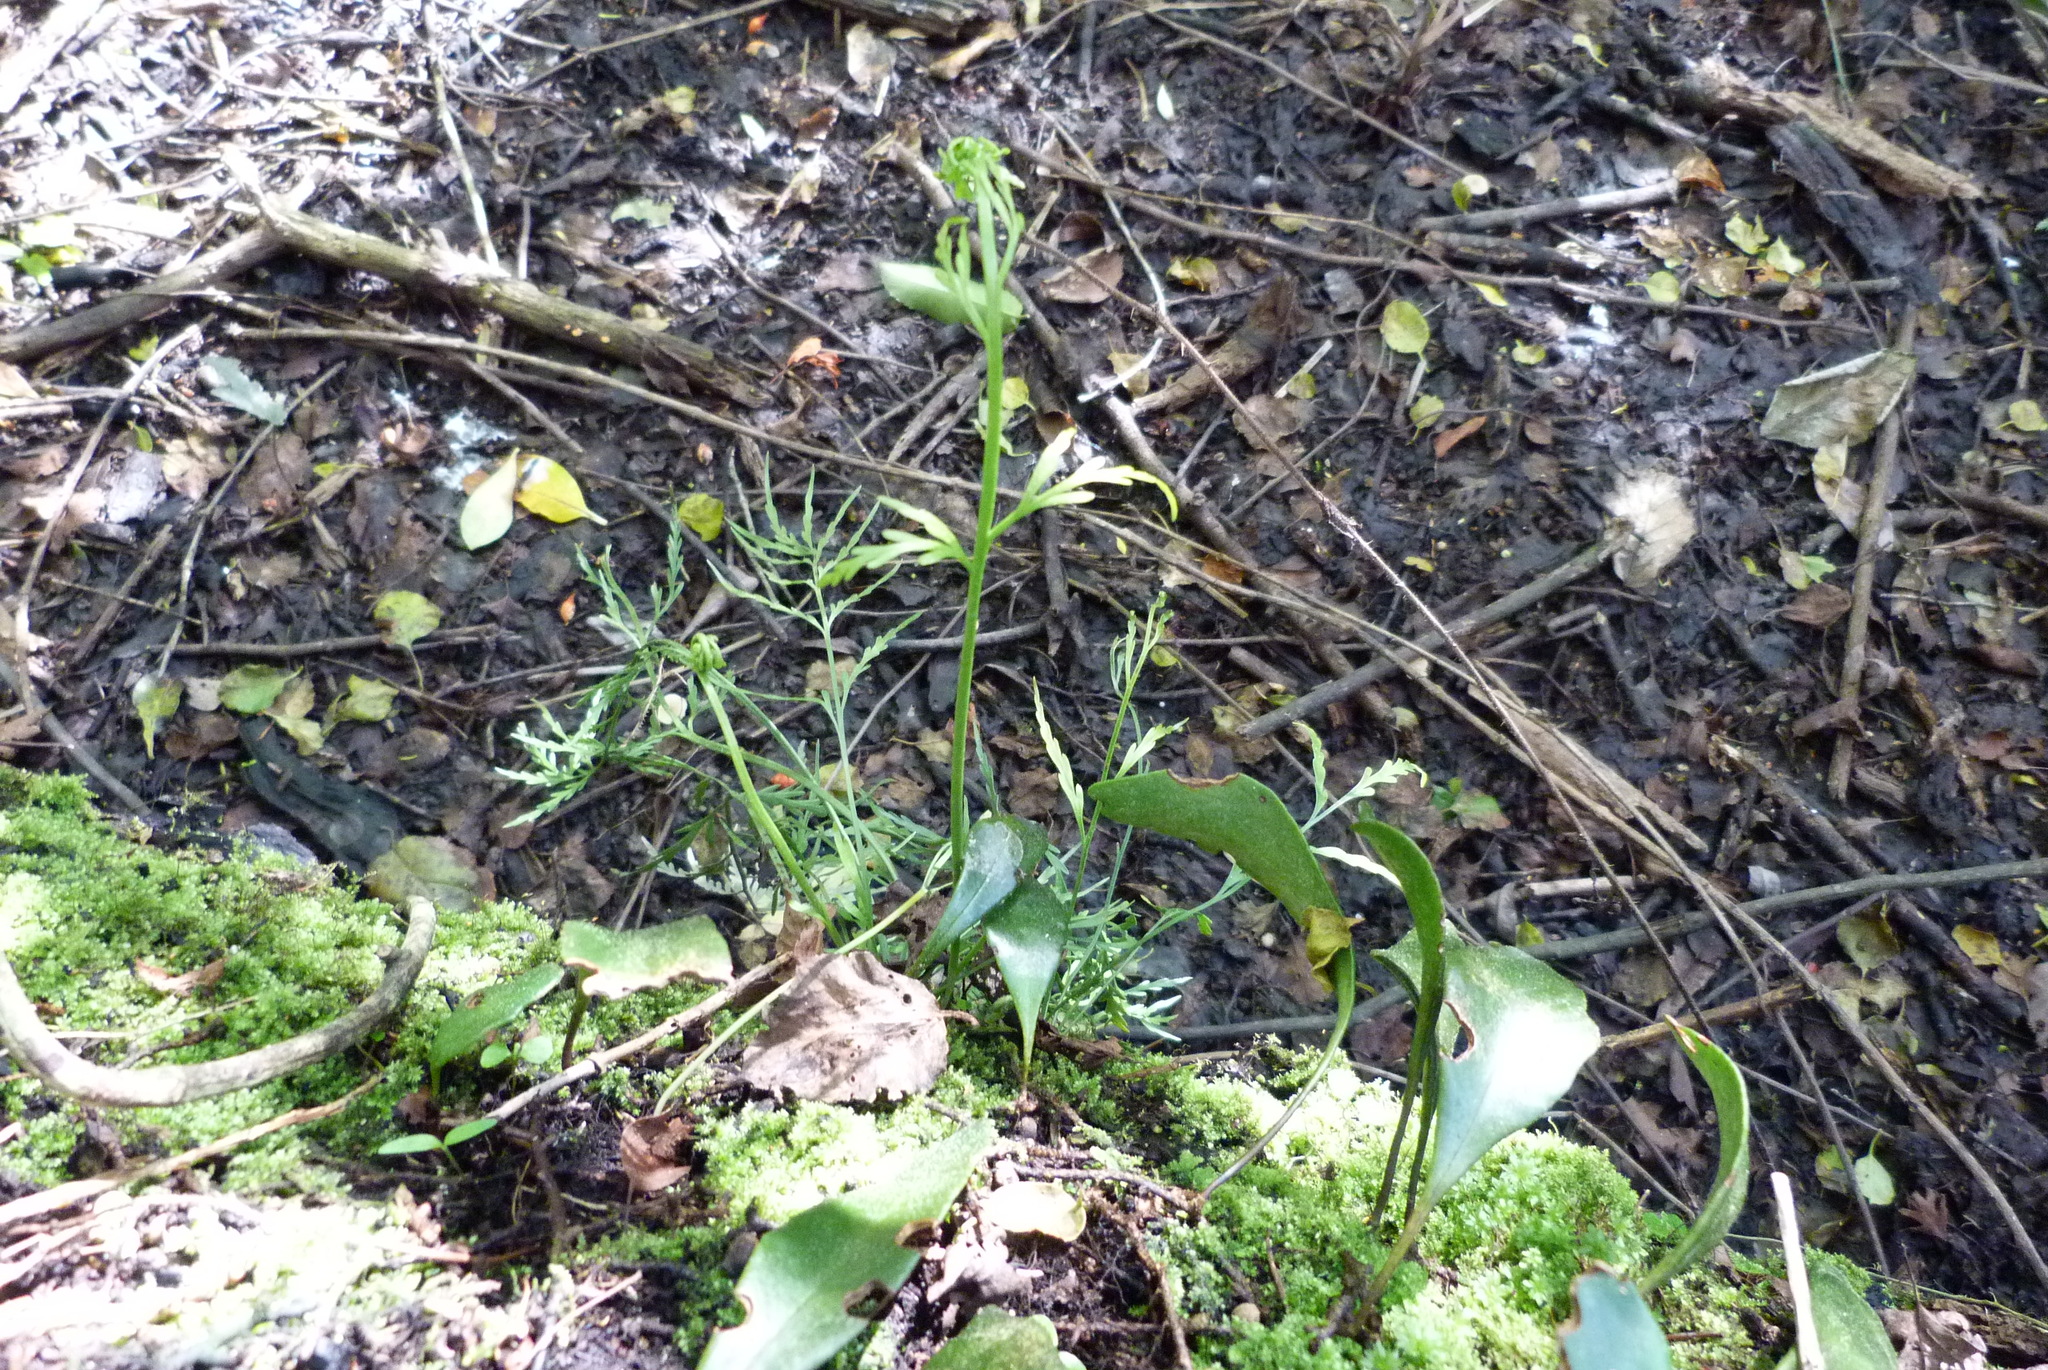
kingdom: Plantae
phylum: Tracheophyta
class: Polypodiopsida
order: Polypodiales
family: Aspleniaceae
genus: Asplenium
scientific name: Asplenium flaccidum
